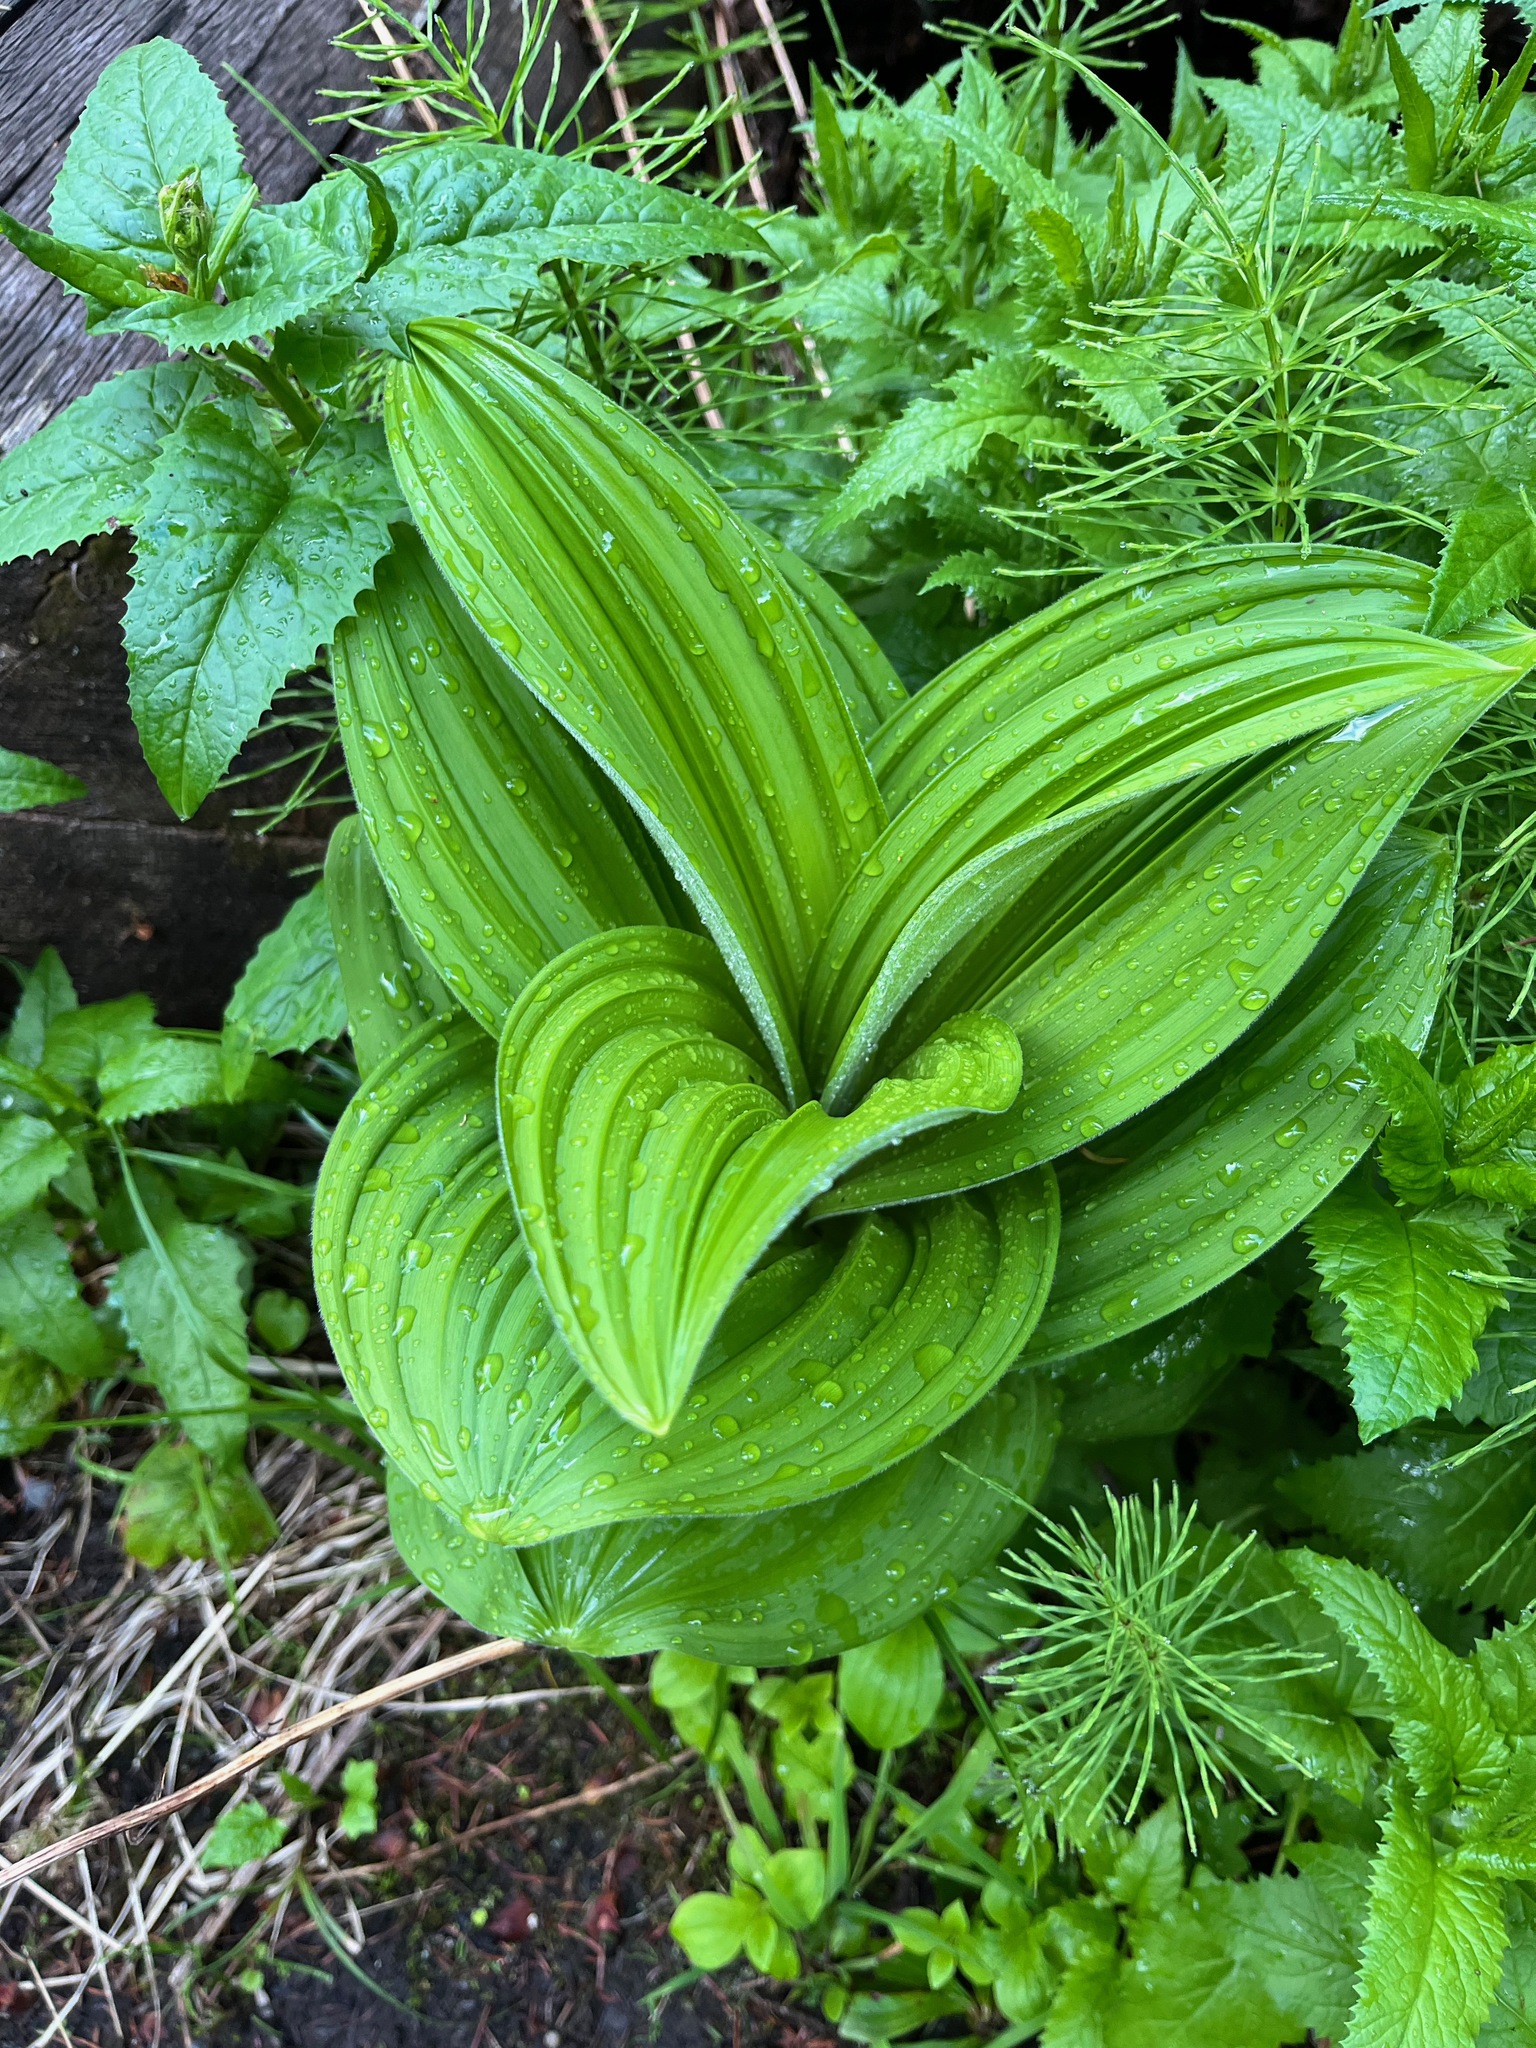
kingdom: Plantae
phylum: Tracheophyta
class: Liliopsida
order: Liliales
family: Melanthiaceae
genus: Veratrum
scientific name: Veratrum viride
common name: American false hellebore
